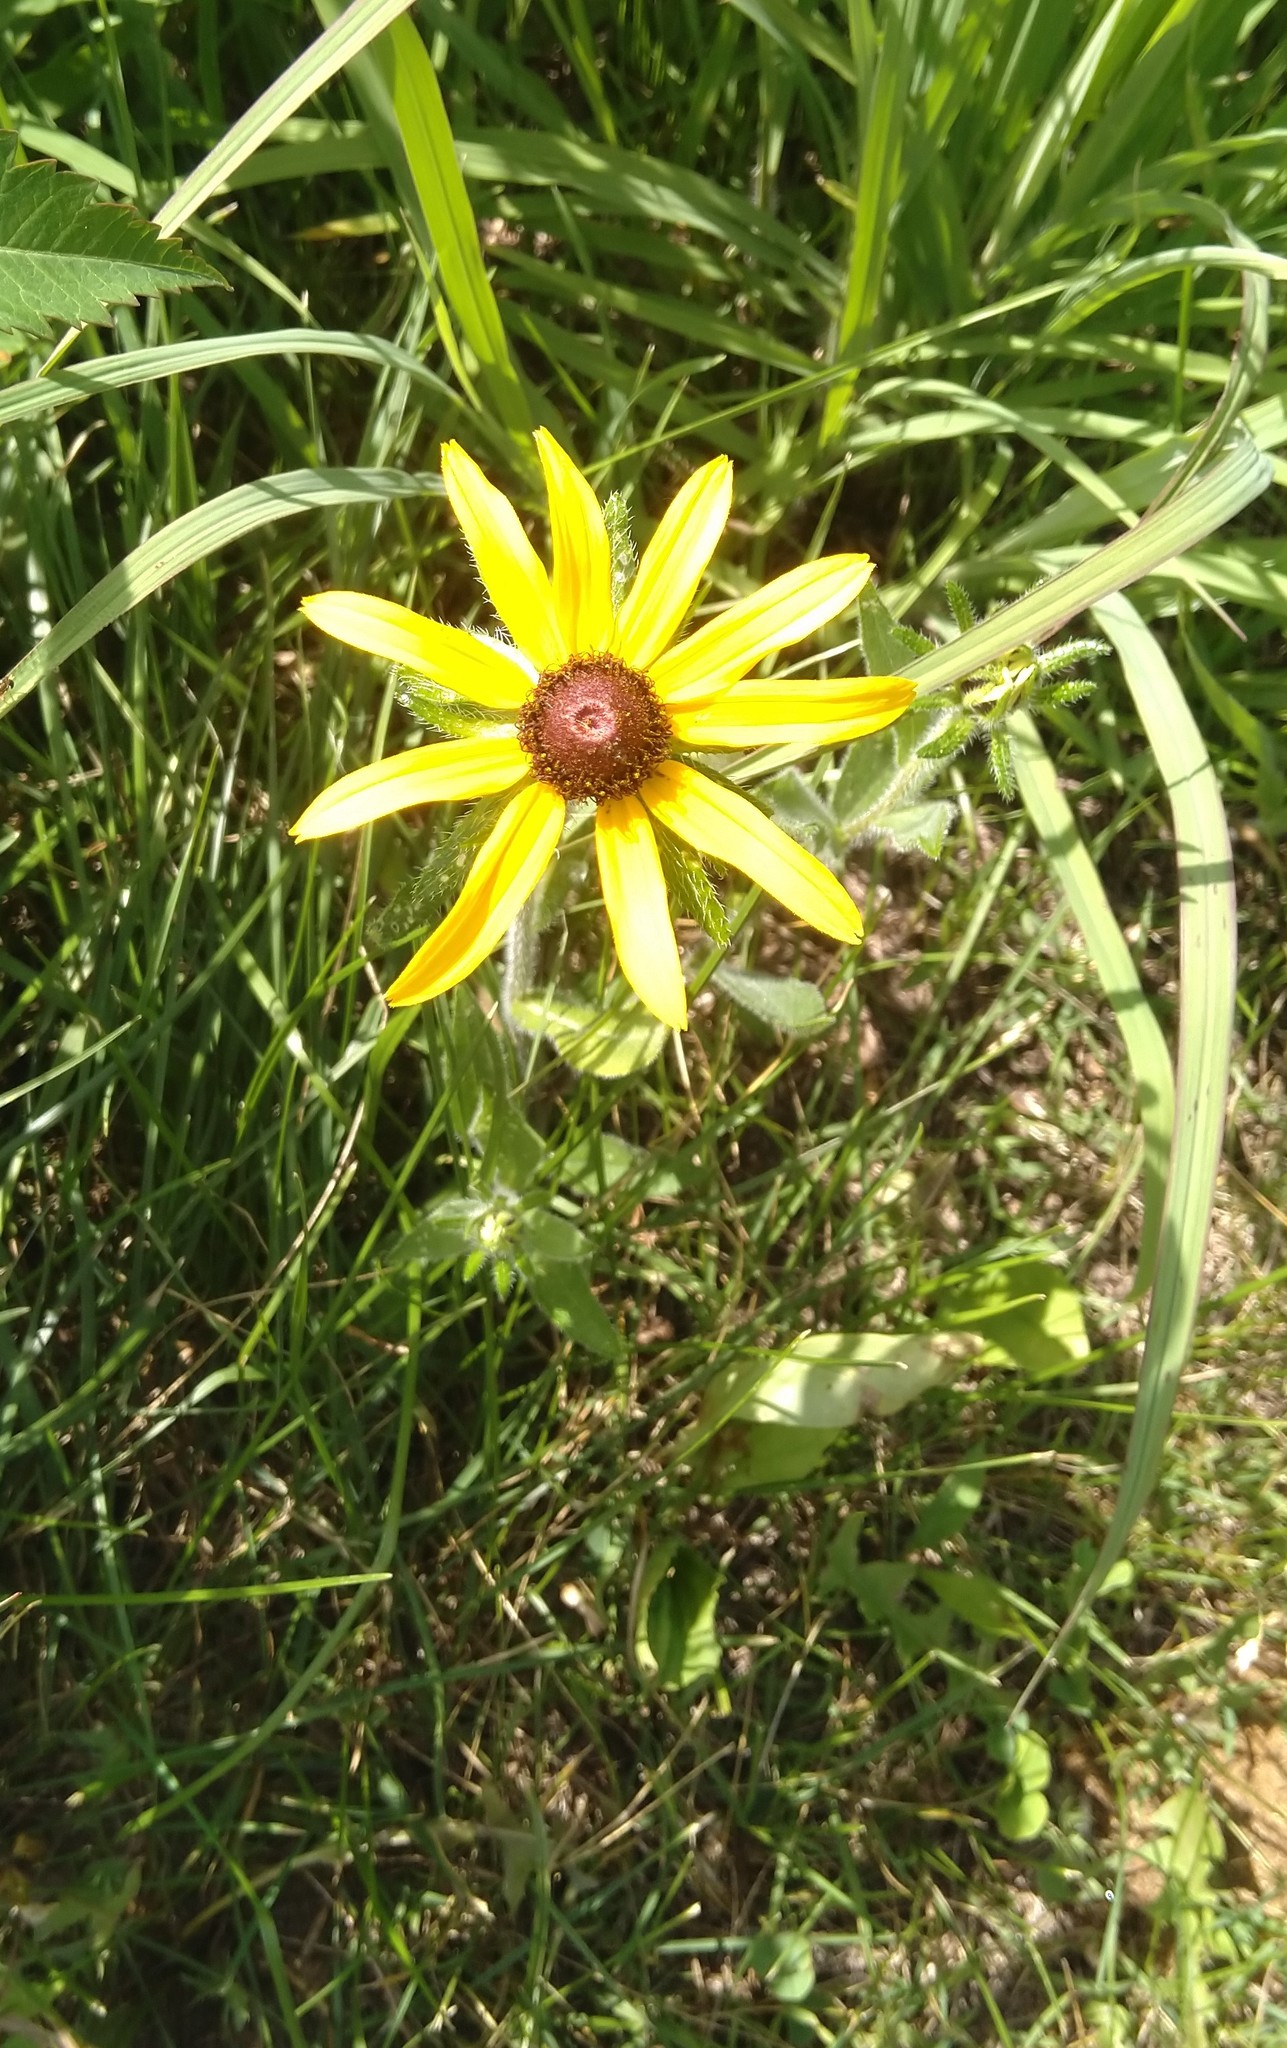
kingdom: Plantae
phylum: Tracheophyta
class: Magnoliopsida
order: Asterales
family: Asteraceae
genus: Rudbeckia
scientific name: Rudbeckia hirta
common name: Black-eyed-susan
